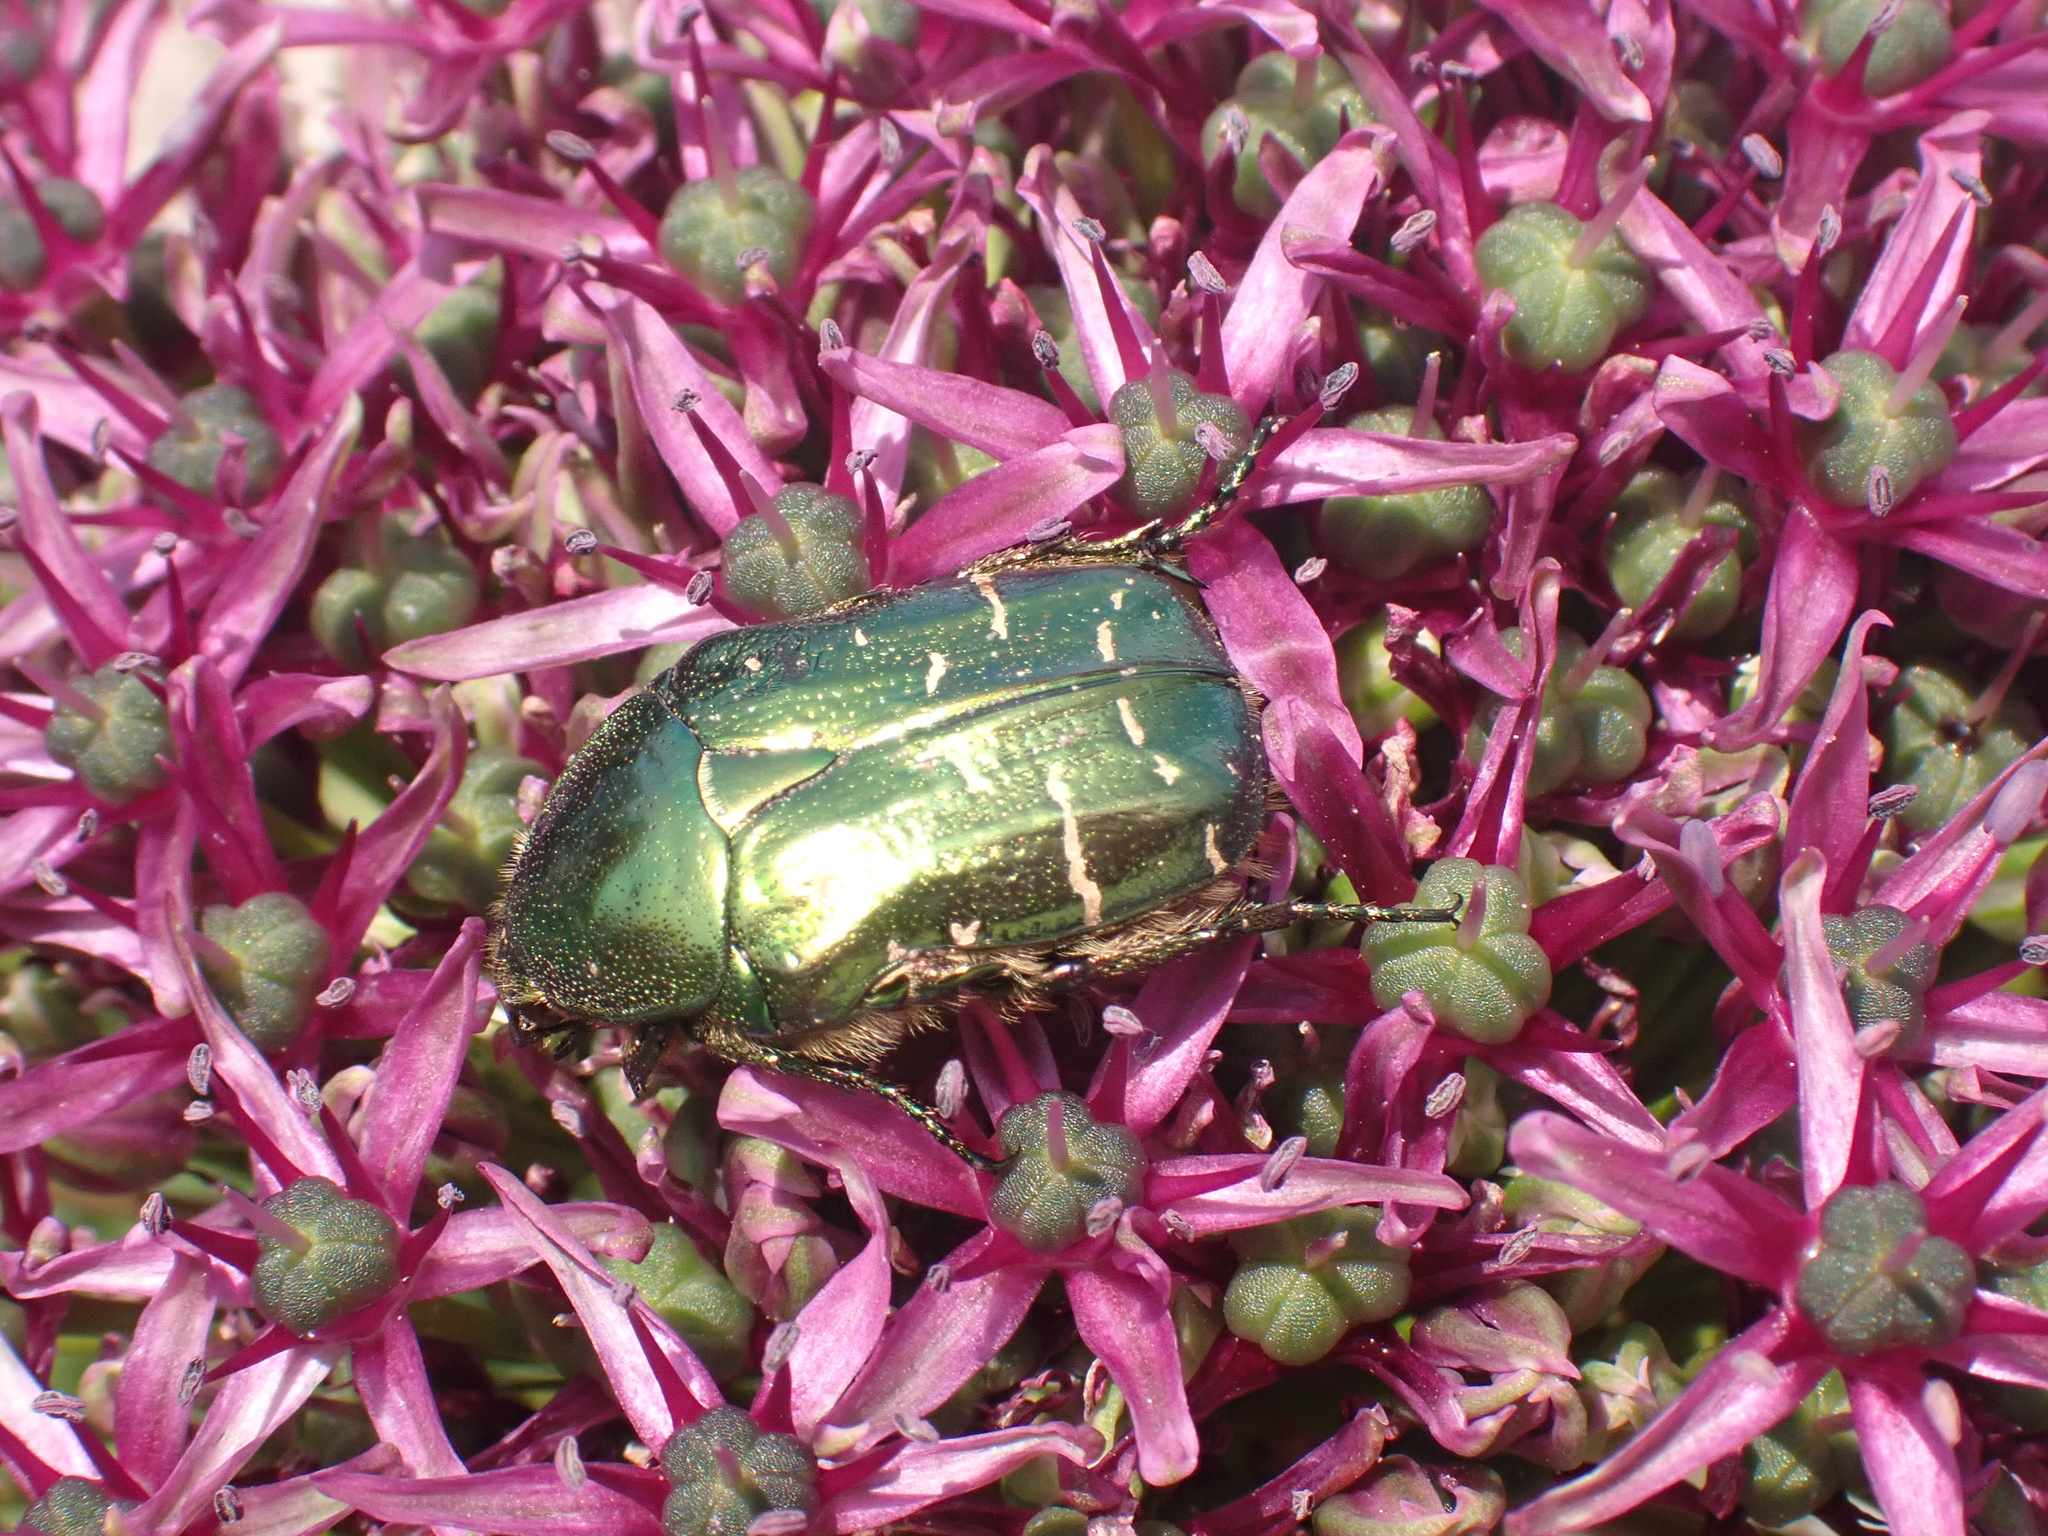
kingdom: Animalia
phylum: Arthropoda
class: Insecta
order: Coleoptera
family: Scarabaeidae
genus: Cetonia
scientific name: Cetonia aurata
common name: Rose chafer
